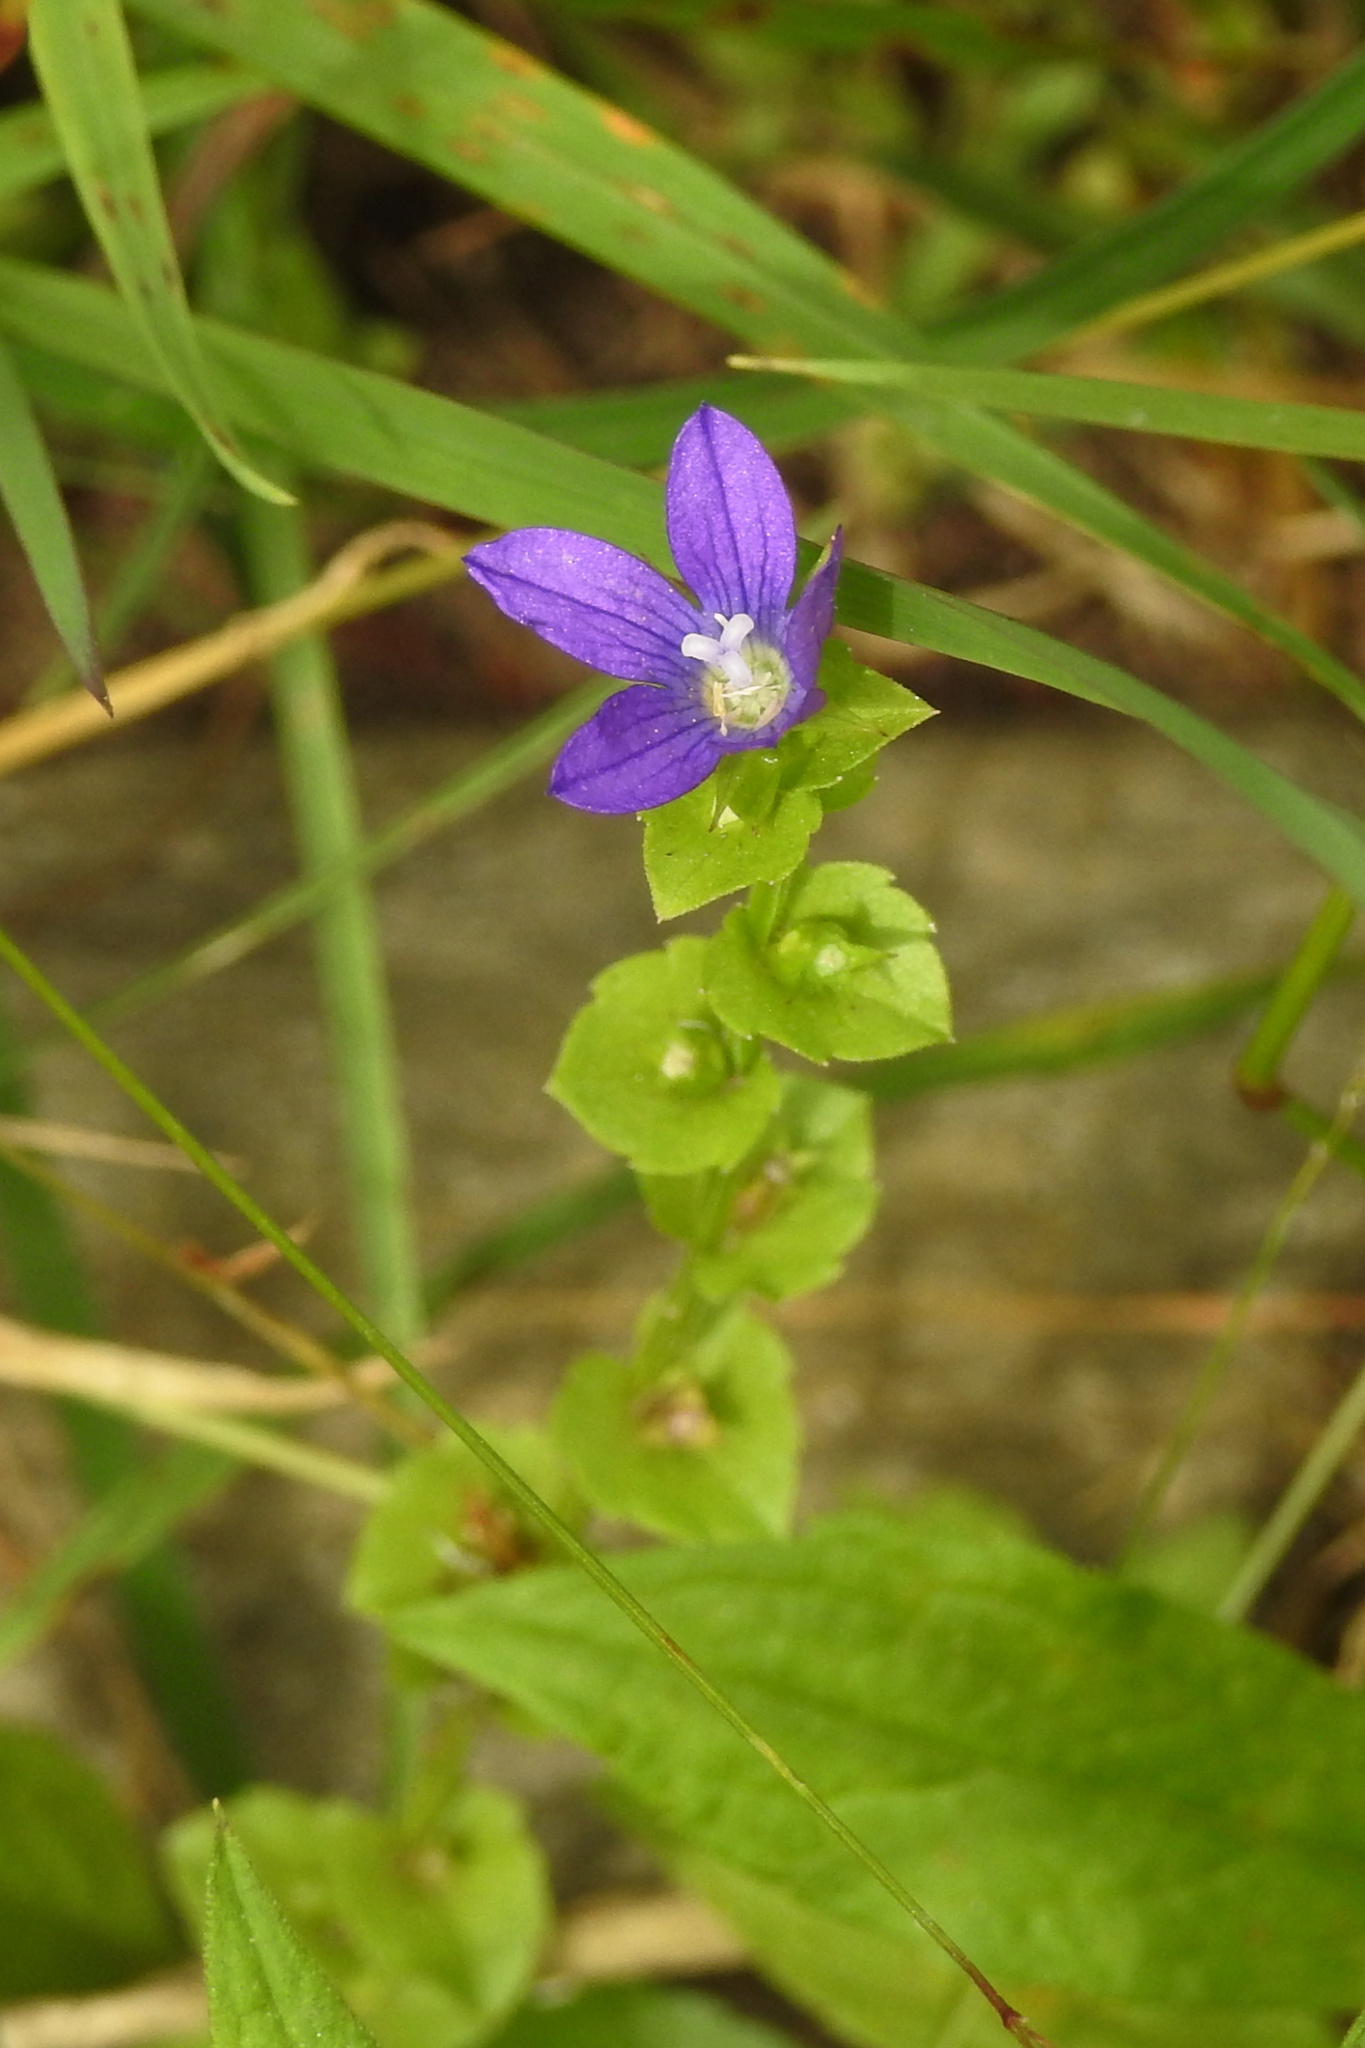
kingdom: Plantae
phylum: Tracheophyta
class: Magnoliopsida
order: Asterales
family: Campanulaceae
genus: Triodanis
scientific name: Triodanis perfoliata
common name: Clasping venus' looking-glass
